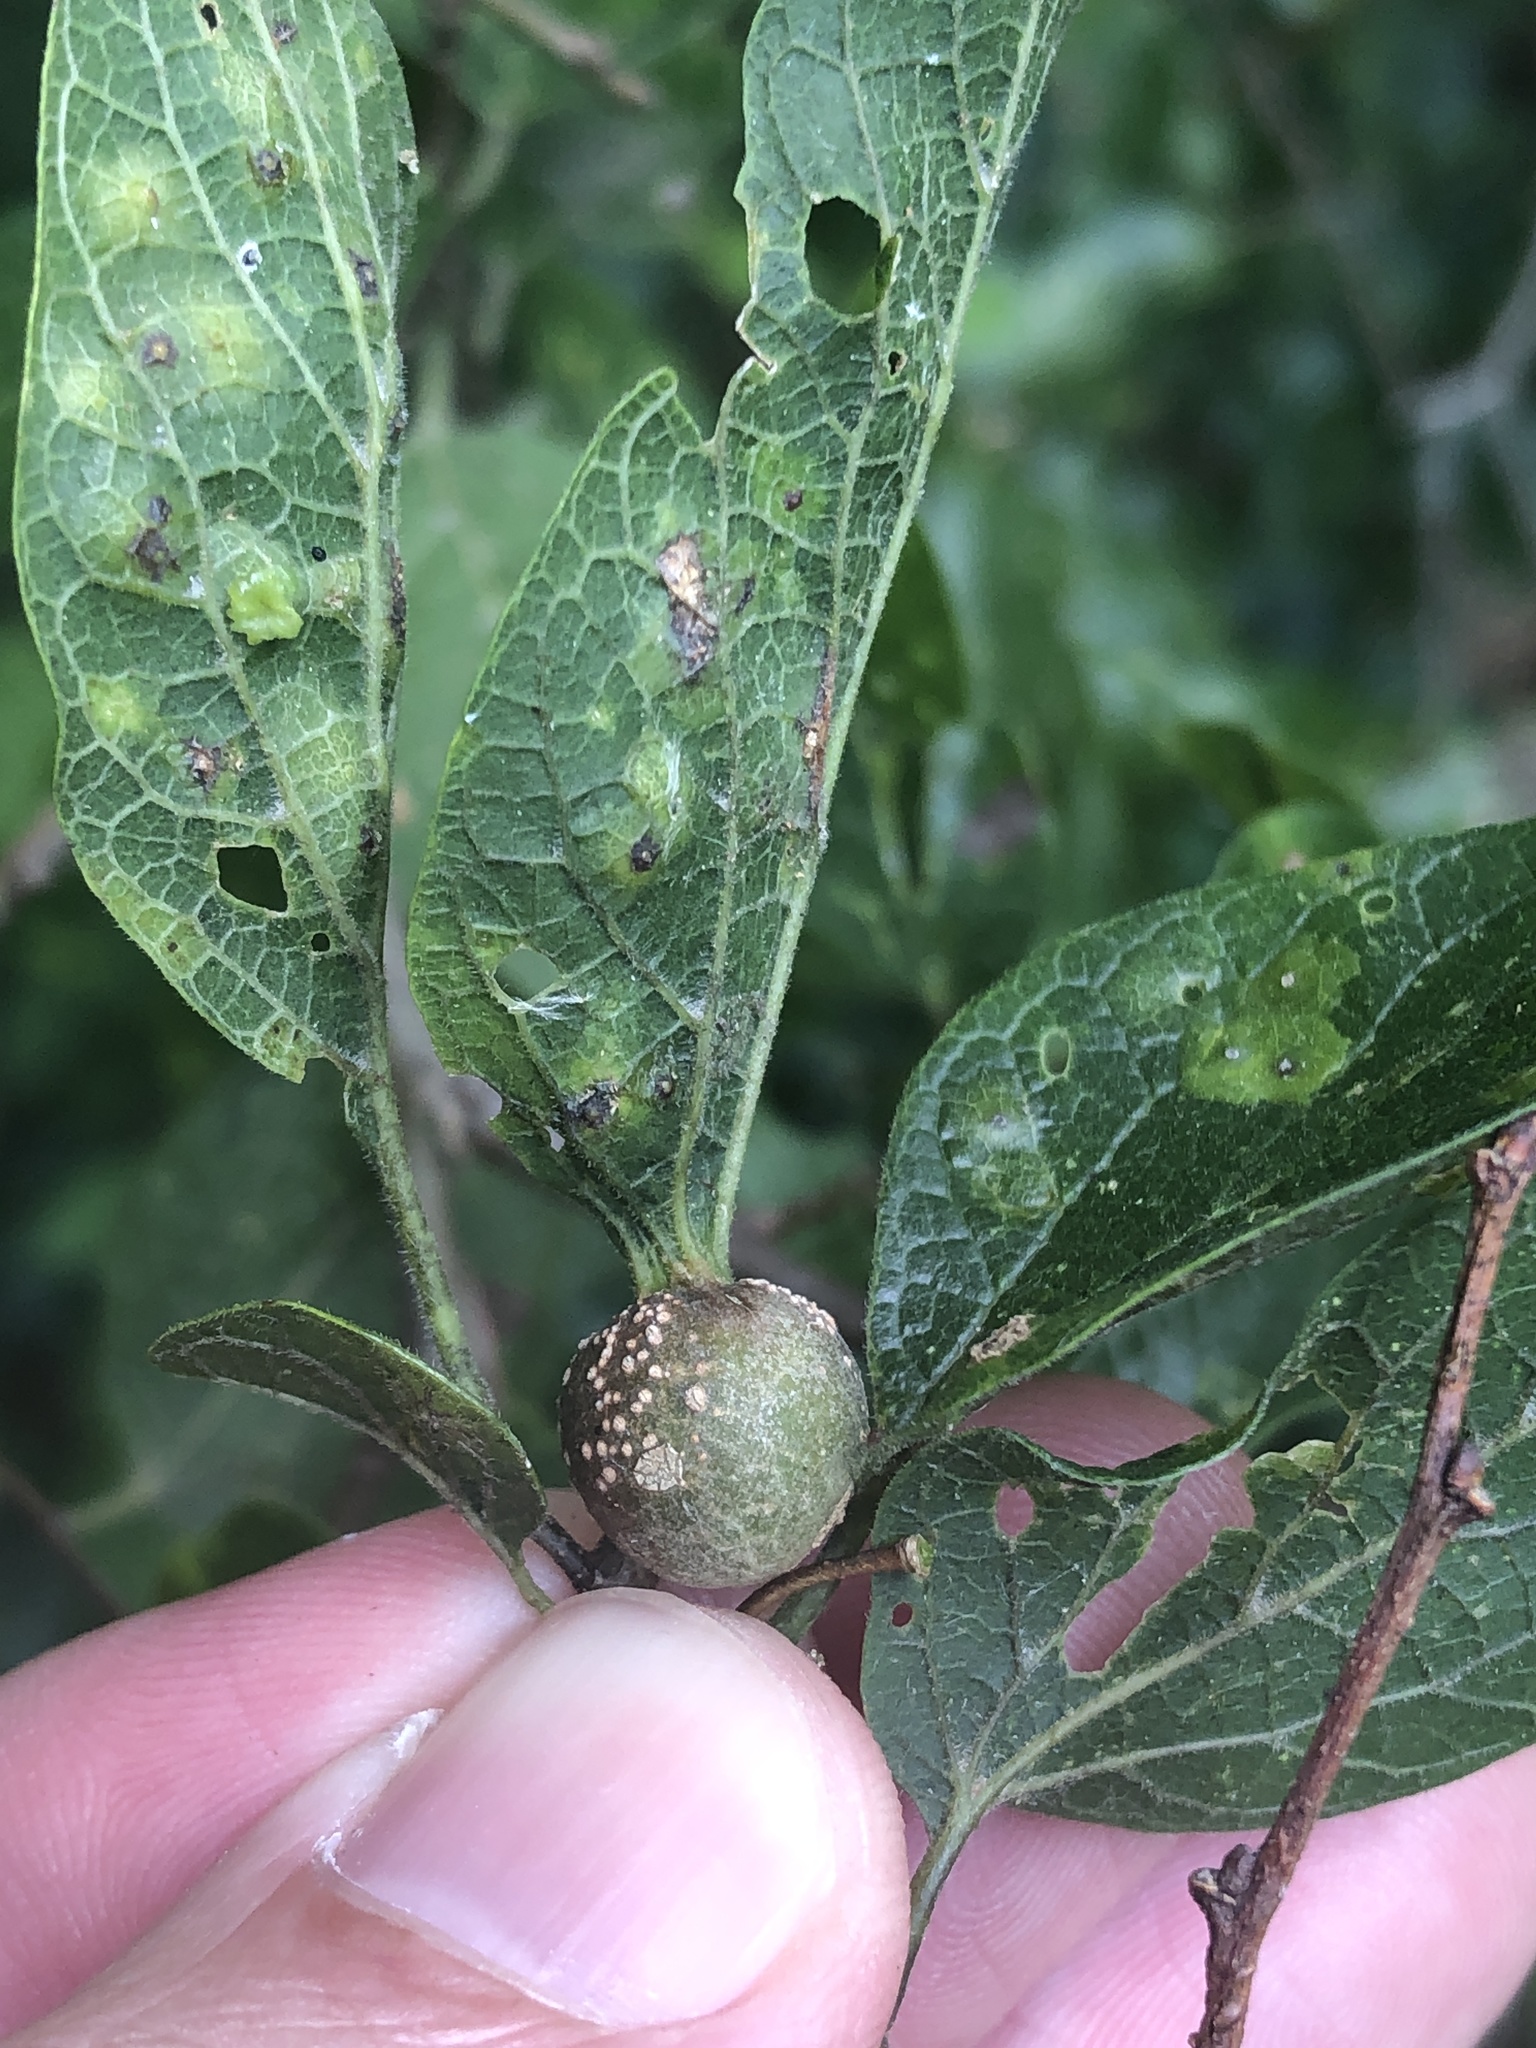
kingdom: Animalia
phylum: Arthropoda
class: Insecta
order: Hemiptera
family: Aphalaridae
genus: Pachypsylla
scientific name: Pachypsylla venusta
